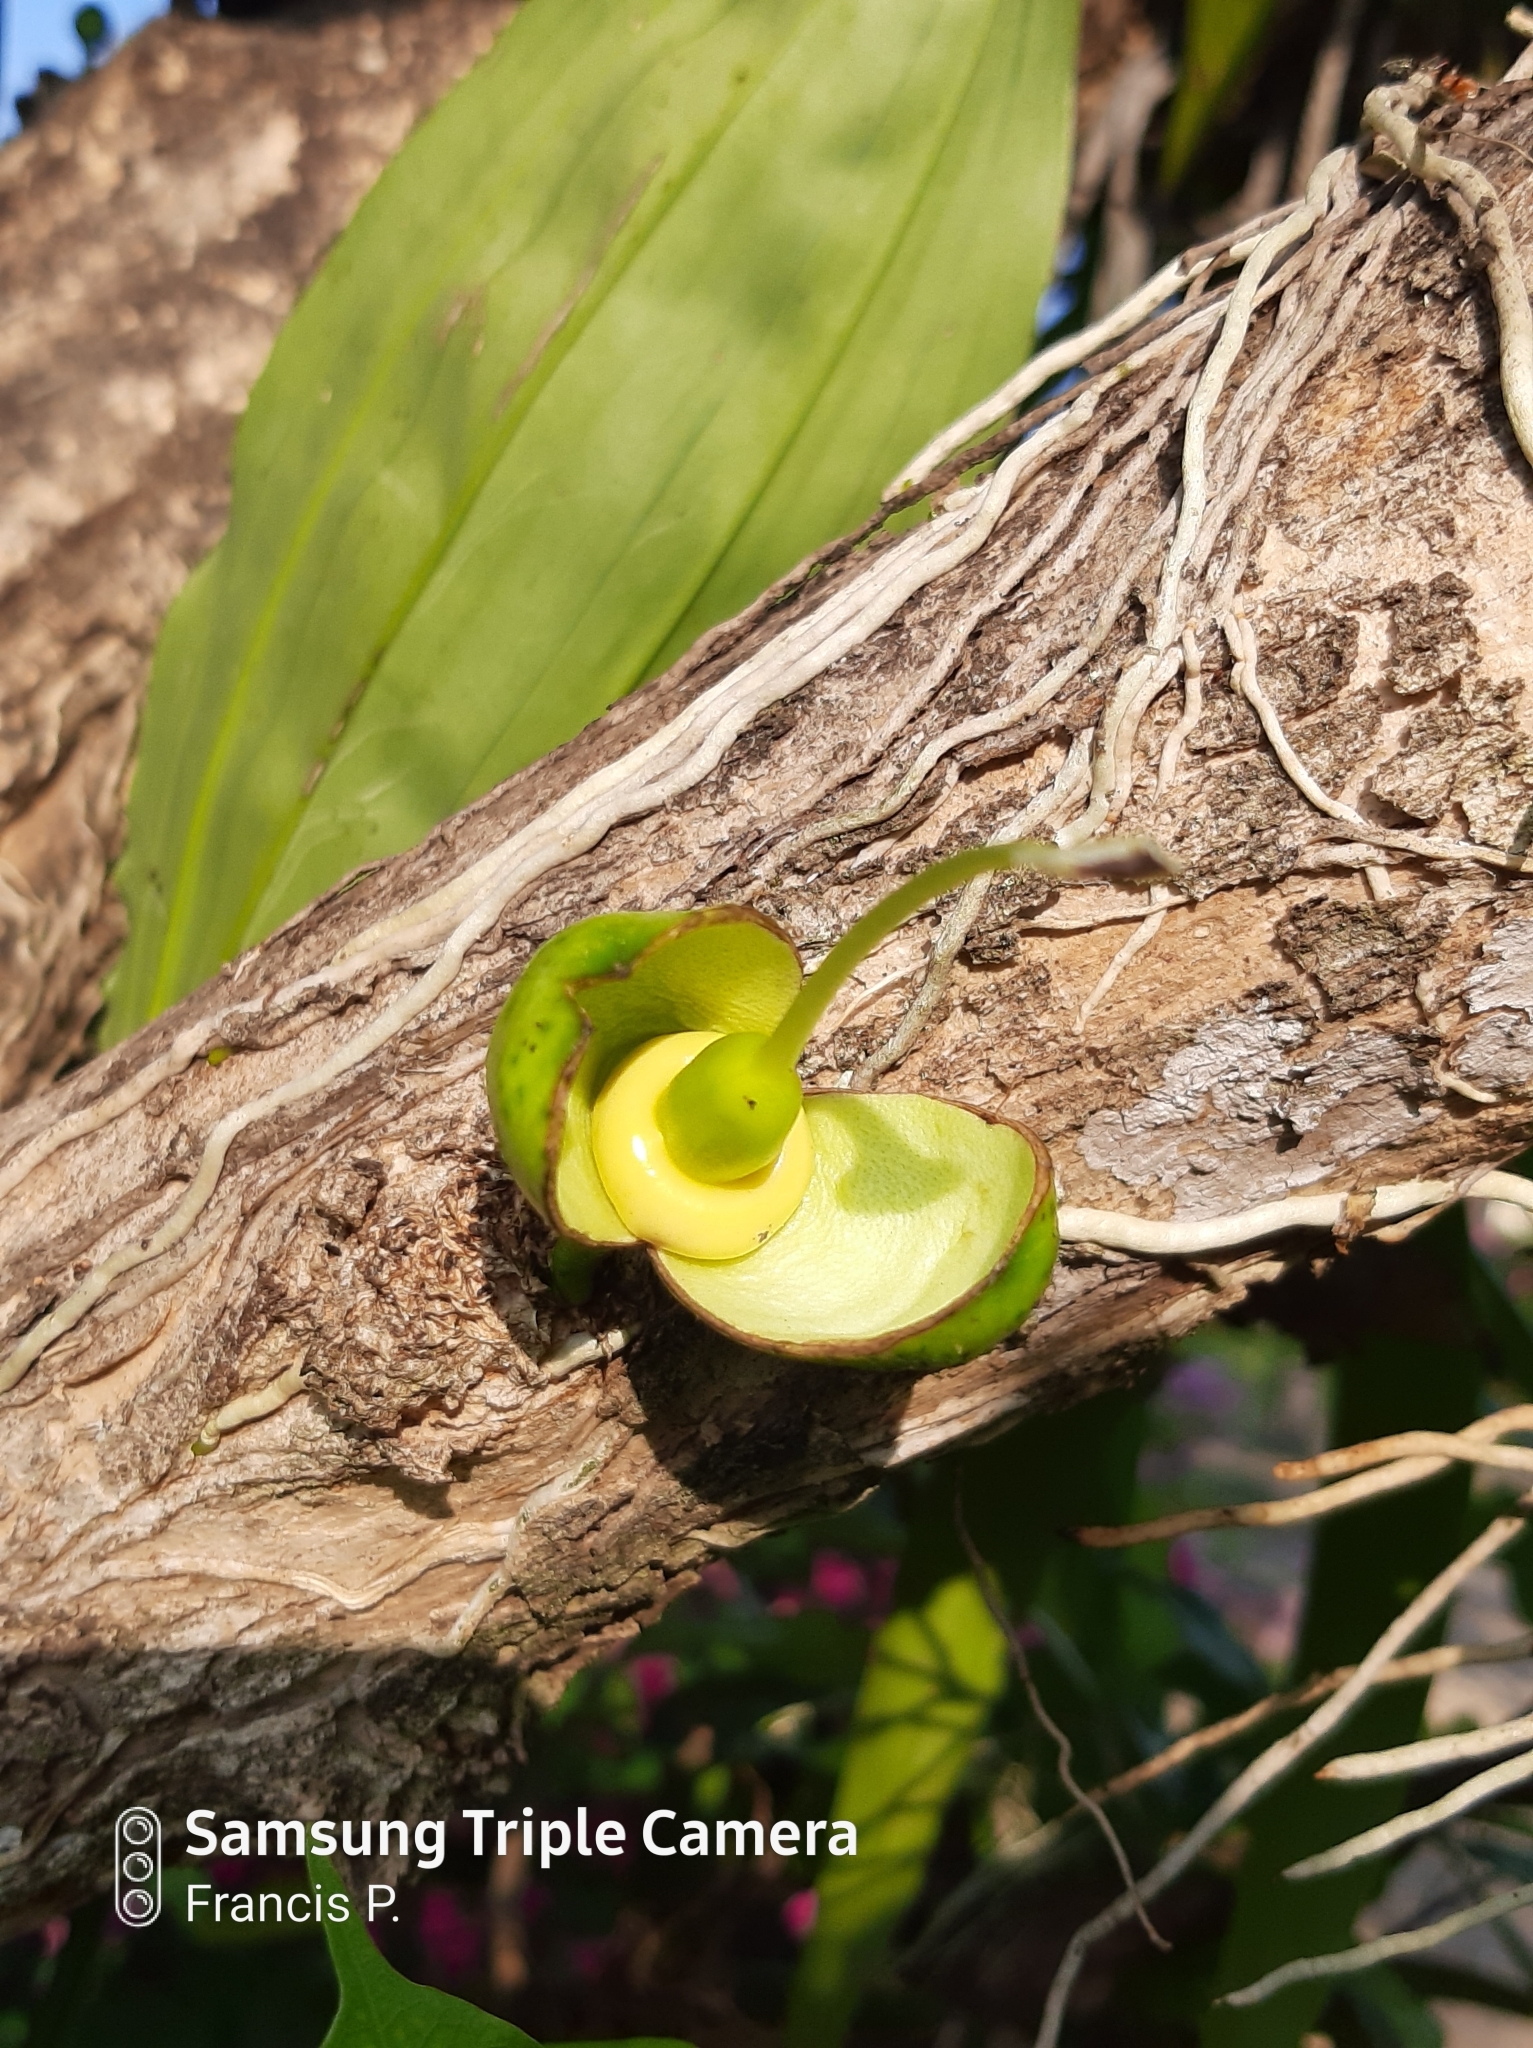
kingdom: Plantae
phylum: Tracheophyta
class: Magnoliopsida
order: Lamiales
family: Bignoniaceae
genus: Crescentia
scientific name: Crescentia cujete
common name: Calabash
